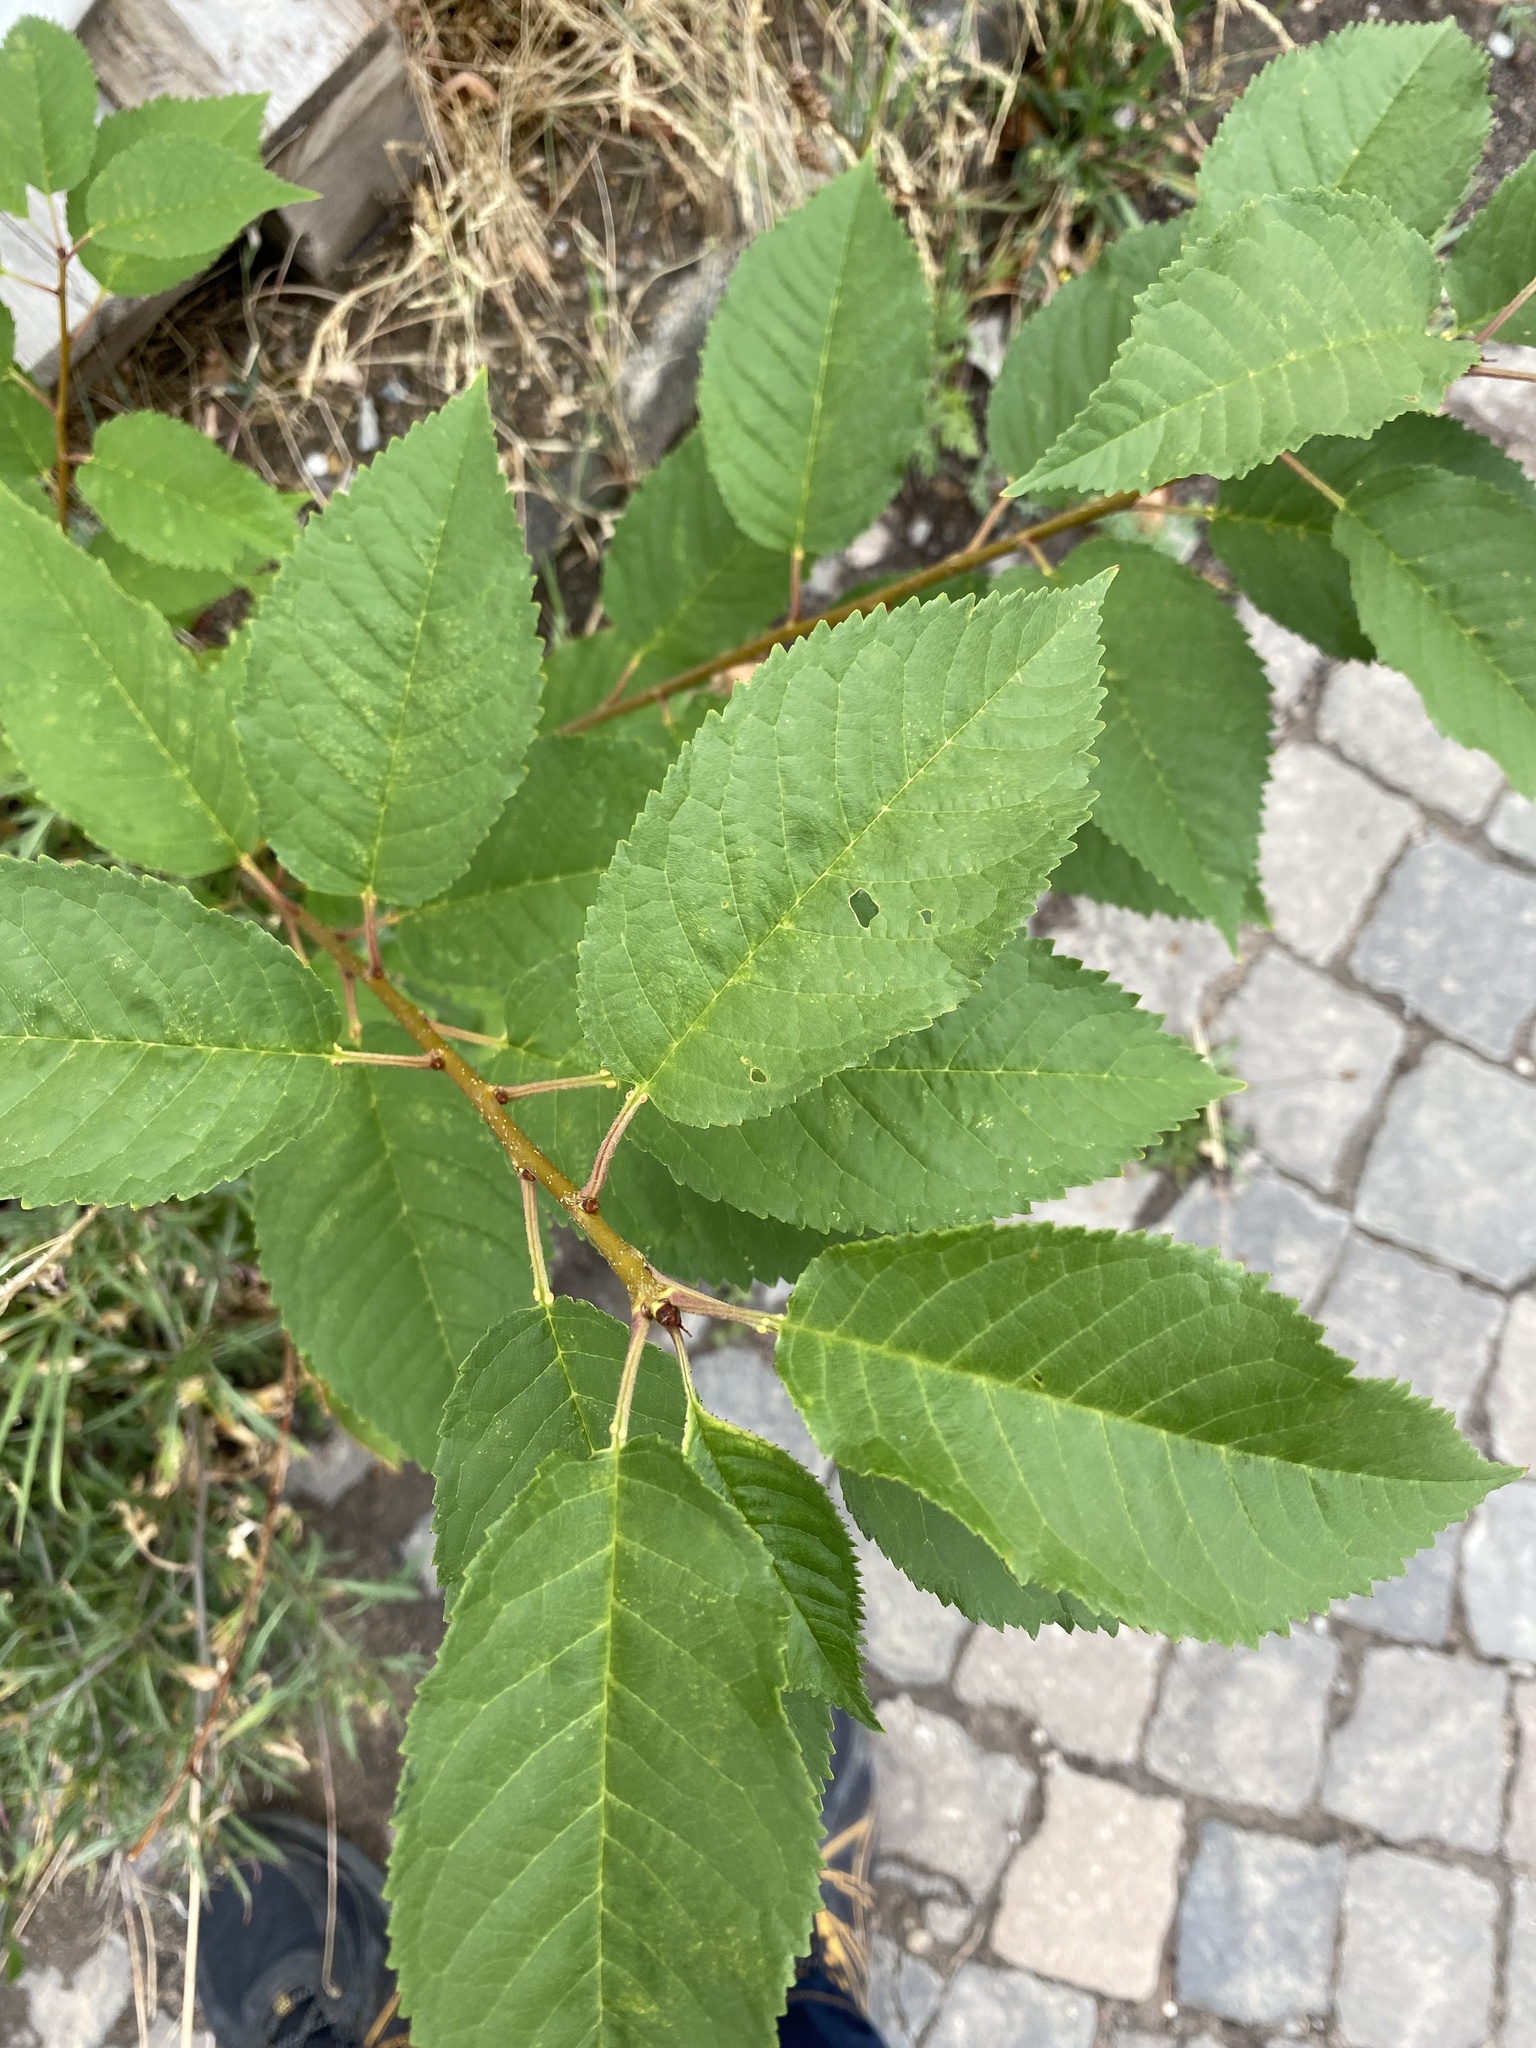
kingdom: Plantae
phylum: Tracheophyta
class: Magnoliopsida
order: Rosales
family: Rosaceae
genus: Prunus
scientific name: Prunus avium
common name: Sweet cherry
